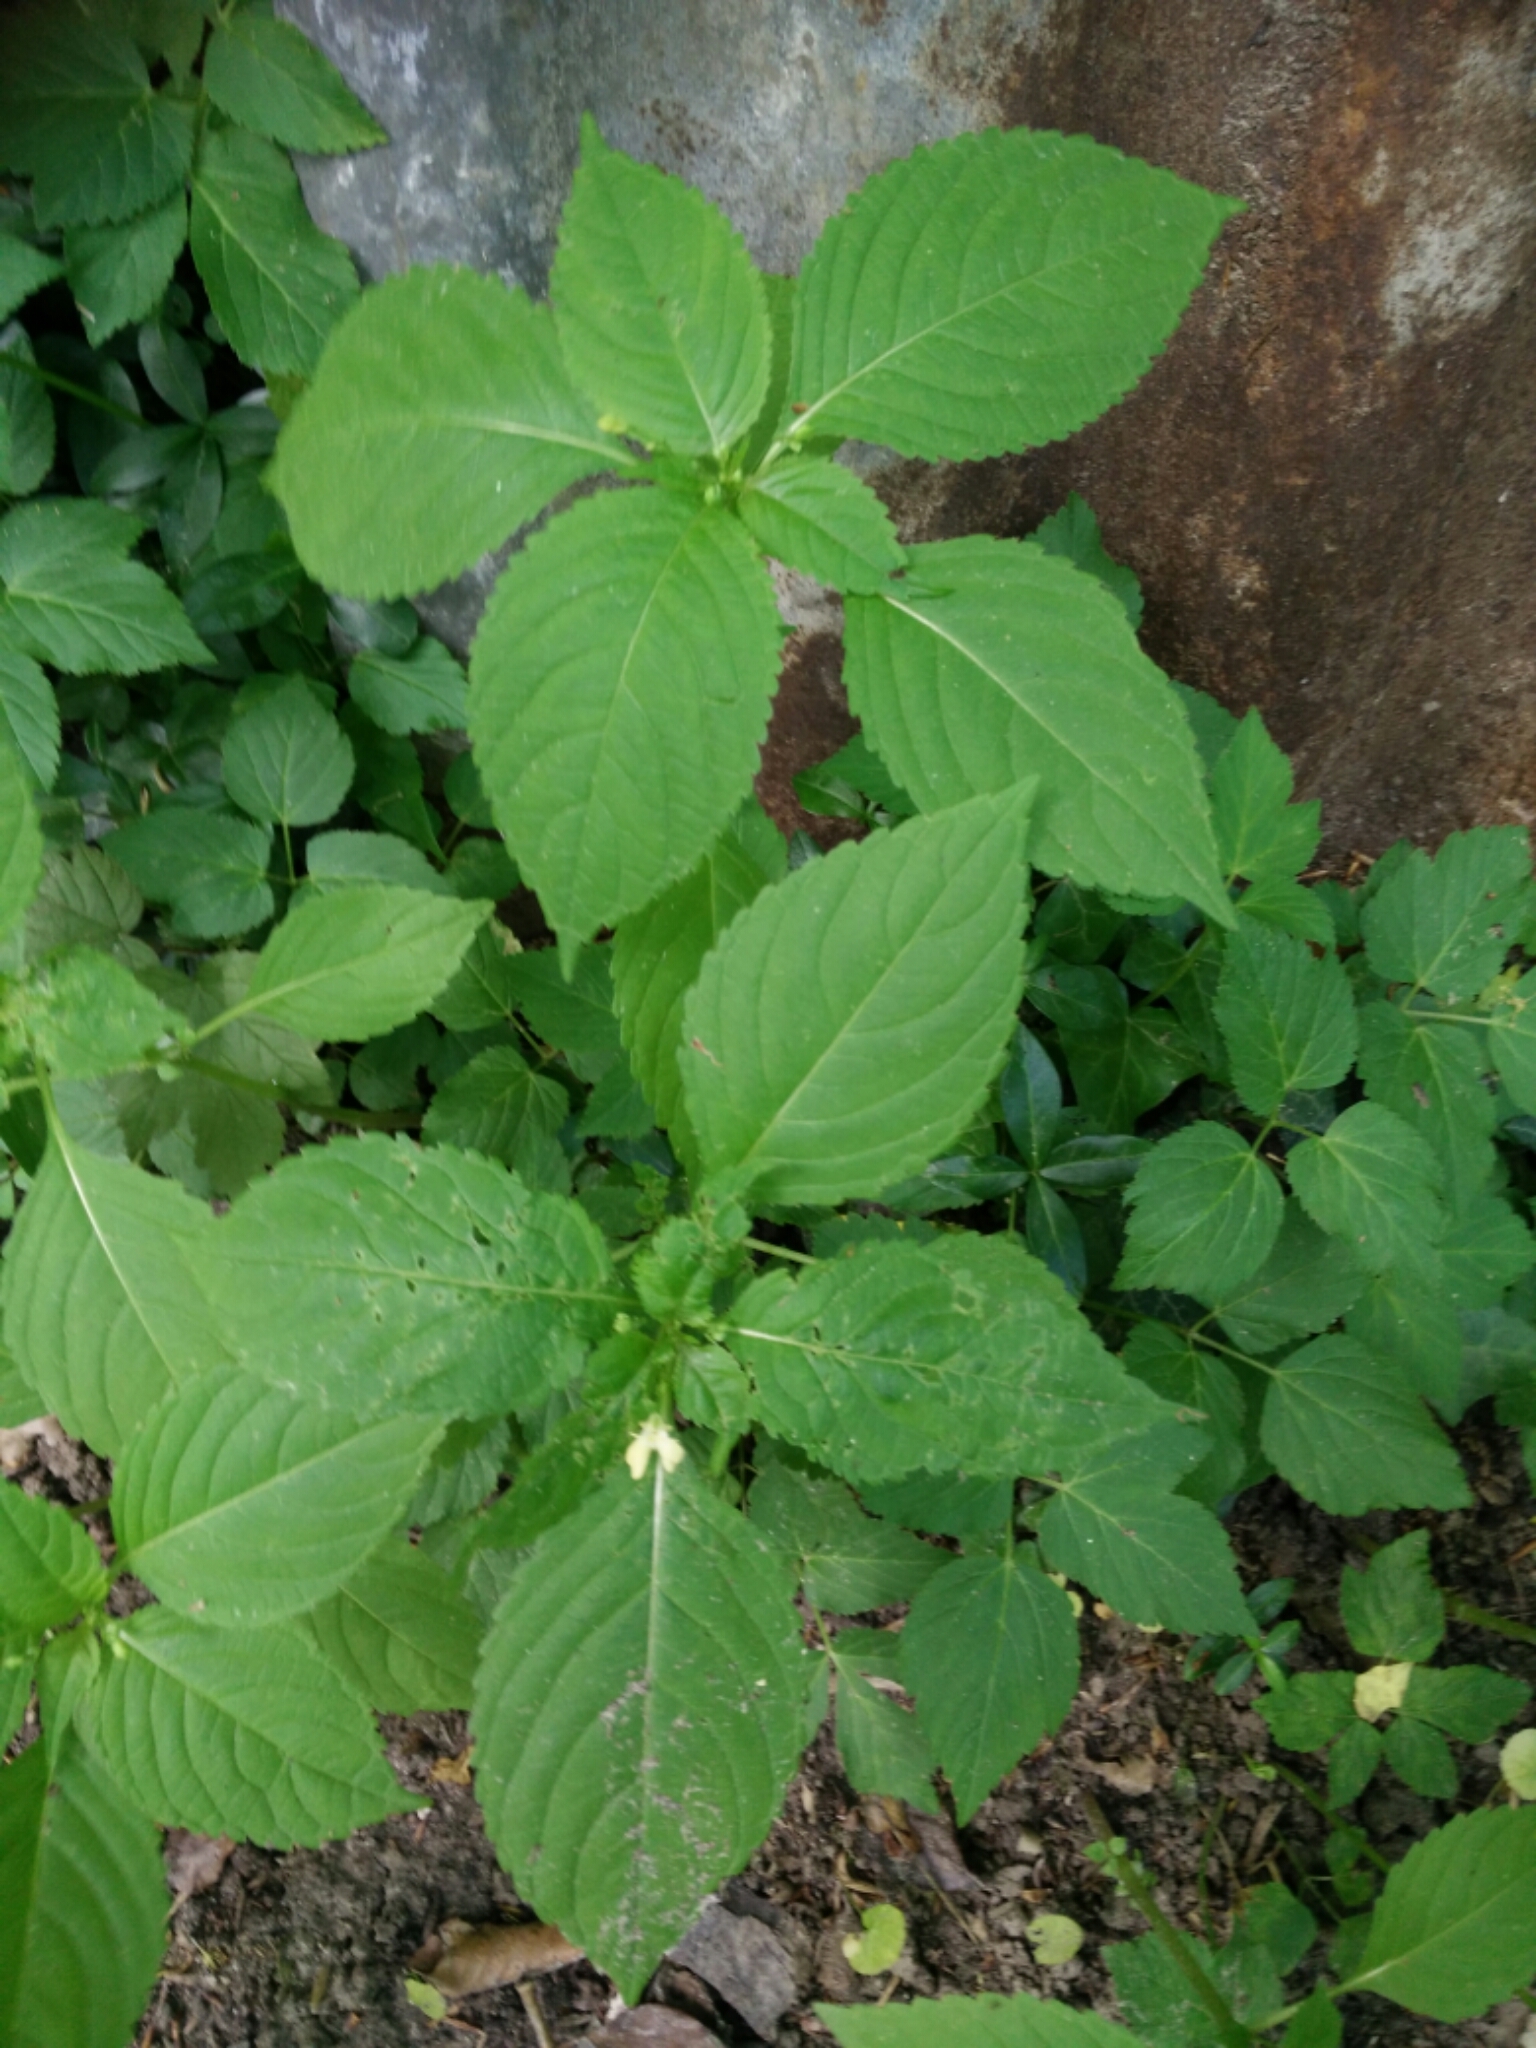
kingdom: Plantae
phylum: Tracheophyta
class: Magnoliopsida
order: Ericales
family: Balsaminaceae
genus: Impatiens
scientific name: Impatiens parviflora
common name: Small balsam
